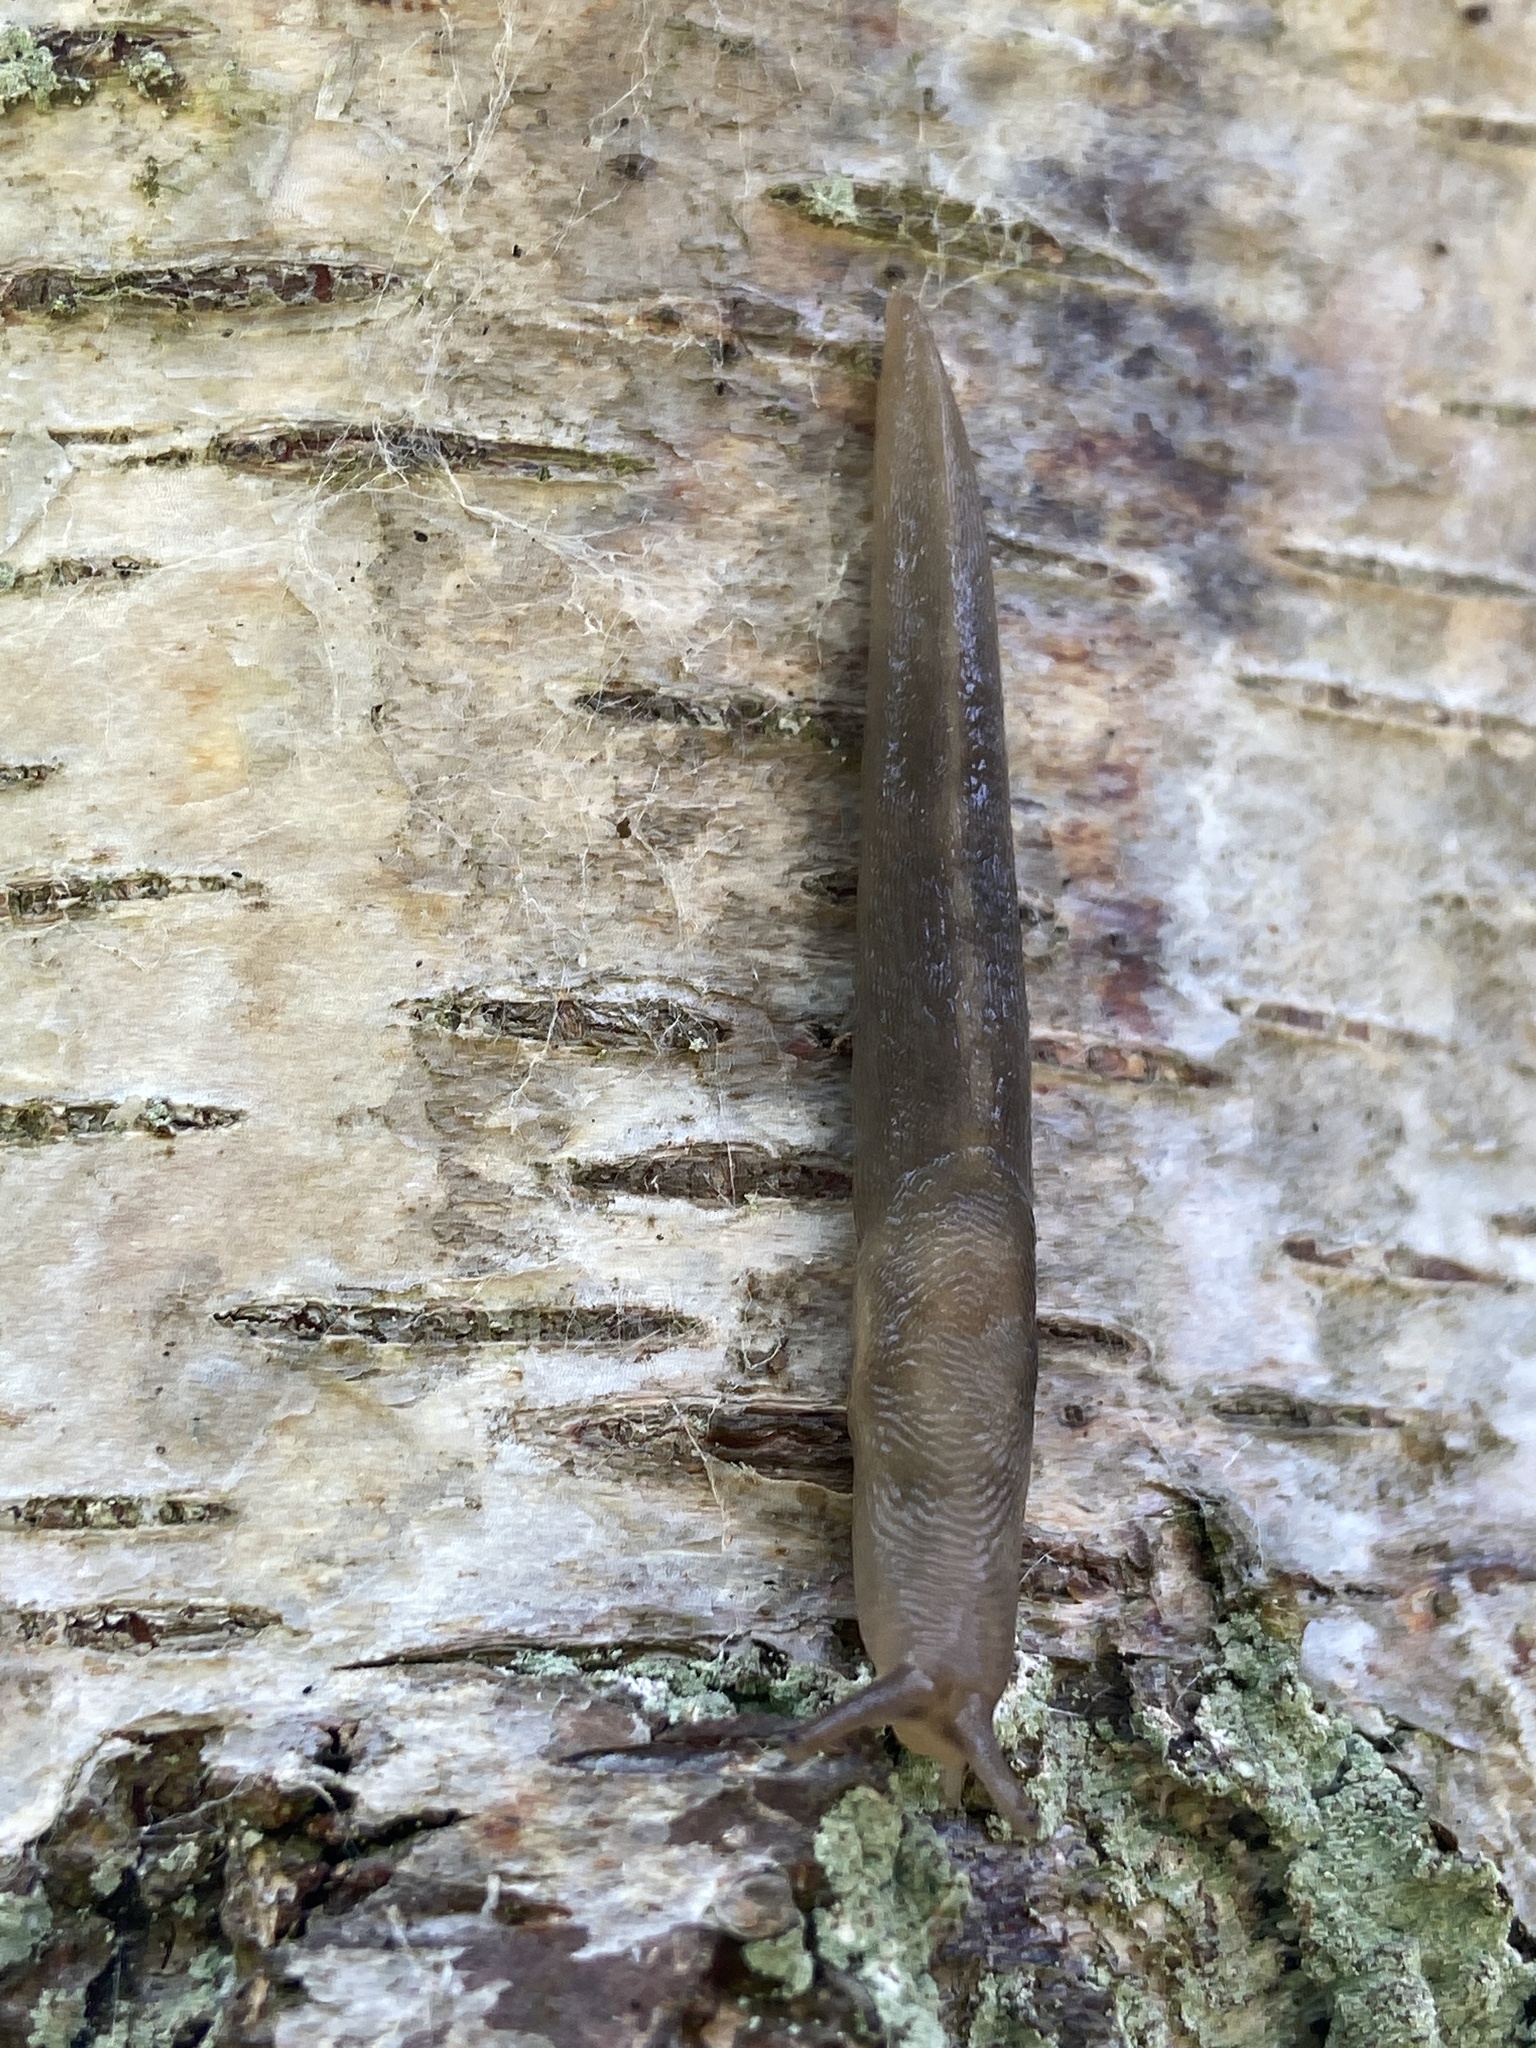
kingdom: Animalia
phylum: Mollusca
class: Gastropoda
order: Stylommatophora
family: Limacidae
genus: Lehmannia
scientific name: Lehmannia marginata
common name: Tree slug
